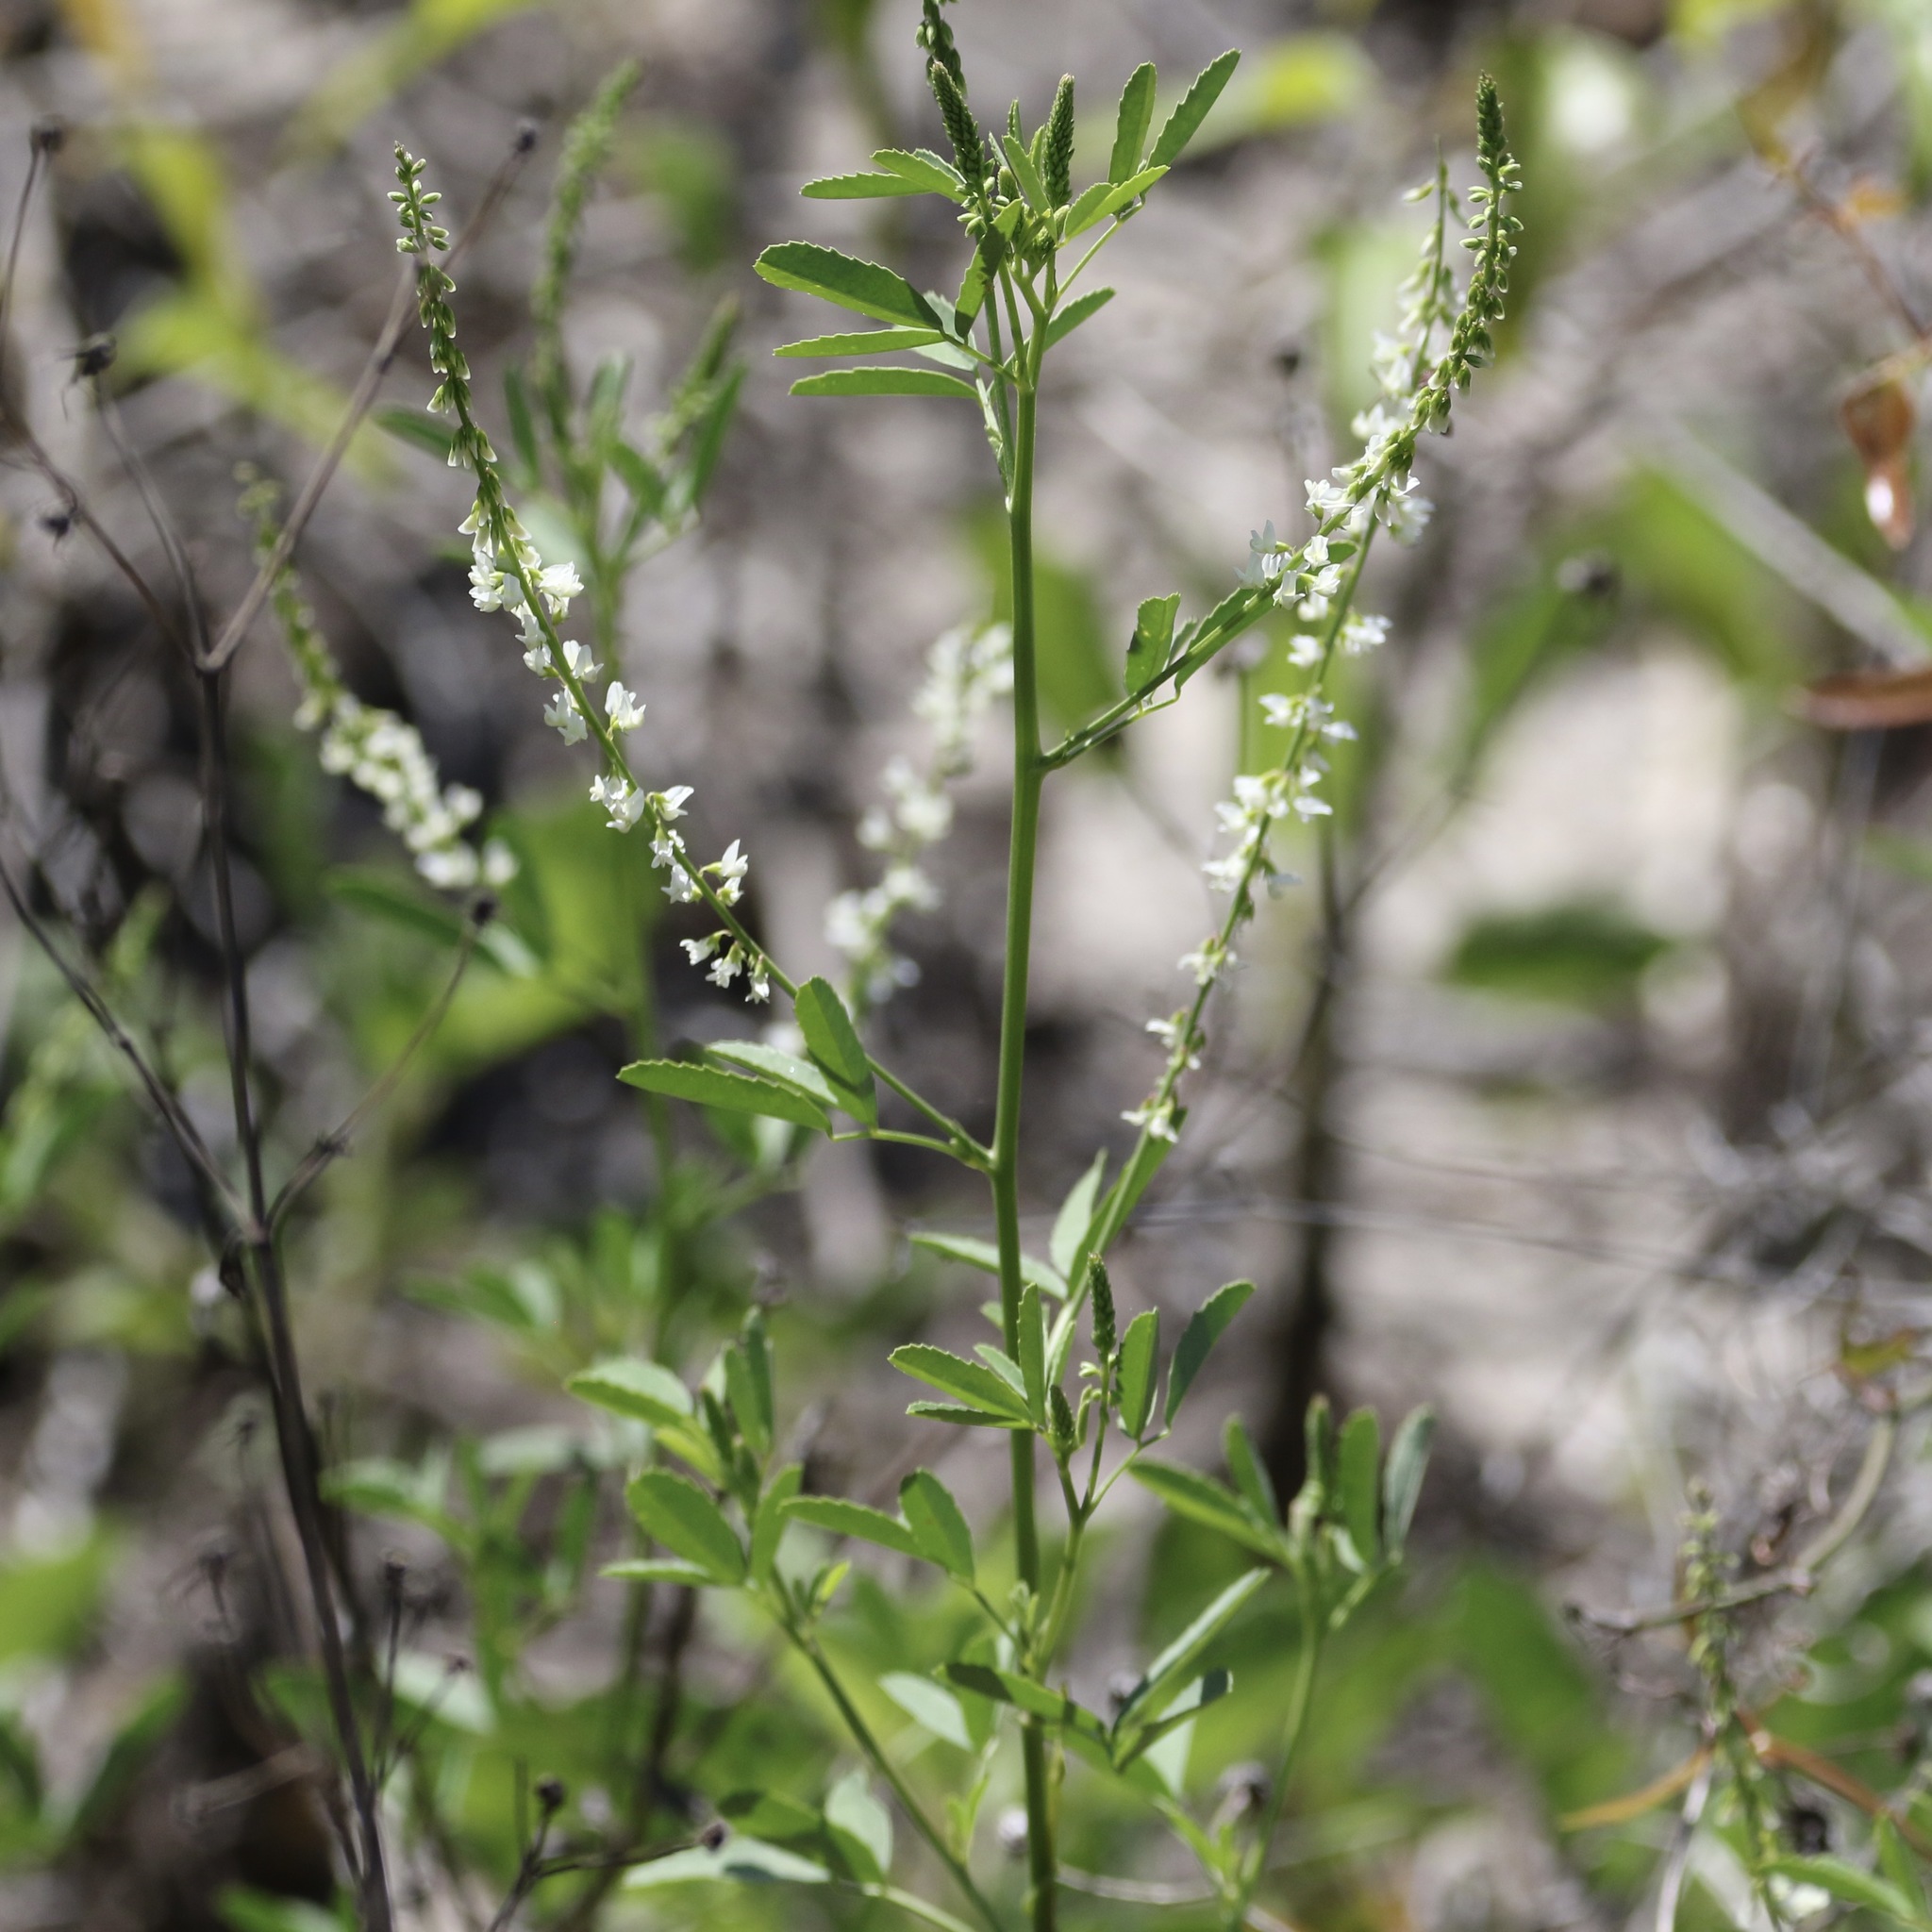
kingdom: Plantae
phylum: Tracheophyta
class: Magnoliopsida
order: Fabales
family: Fabaceae
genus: Melilotus
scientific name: Melilotus albus
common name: White melilot
